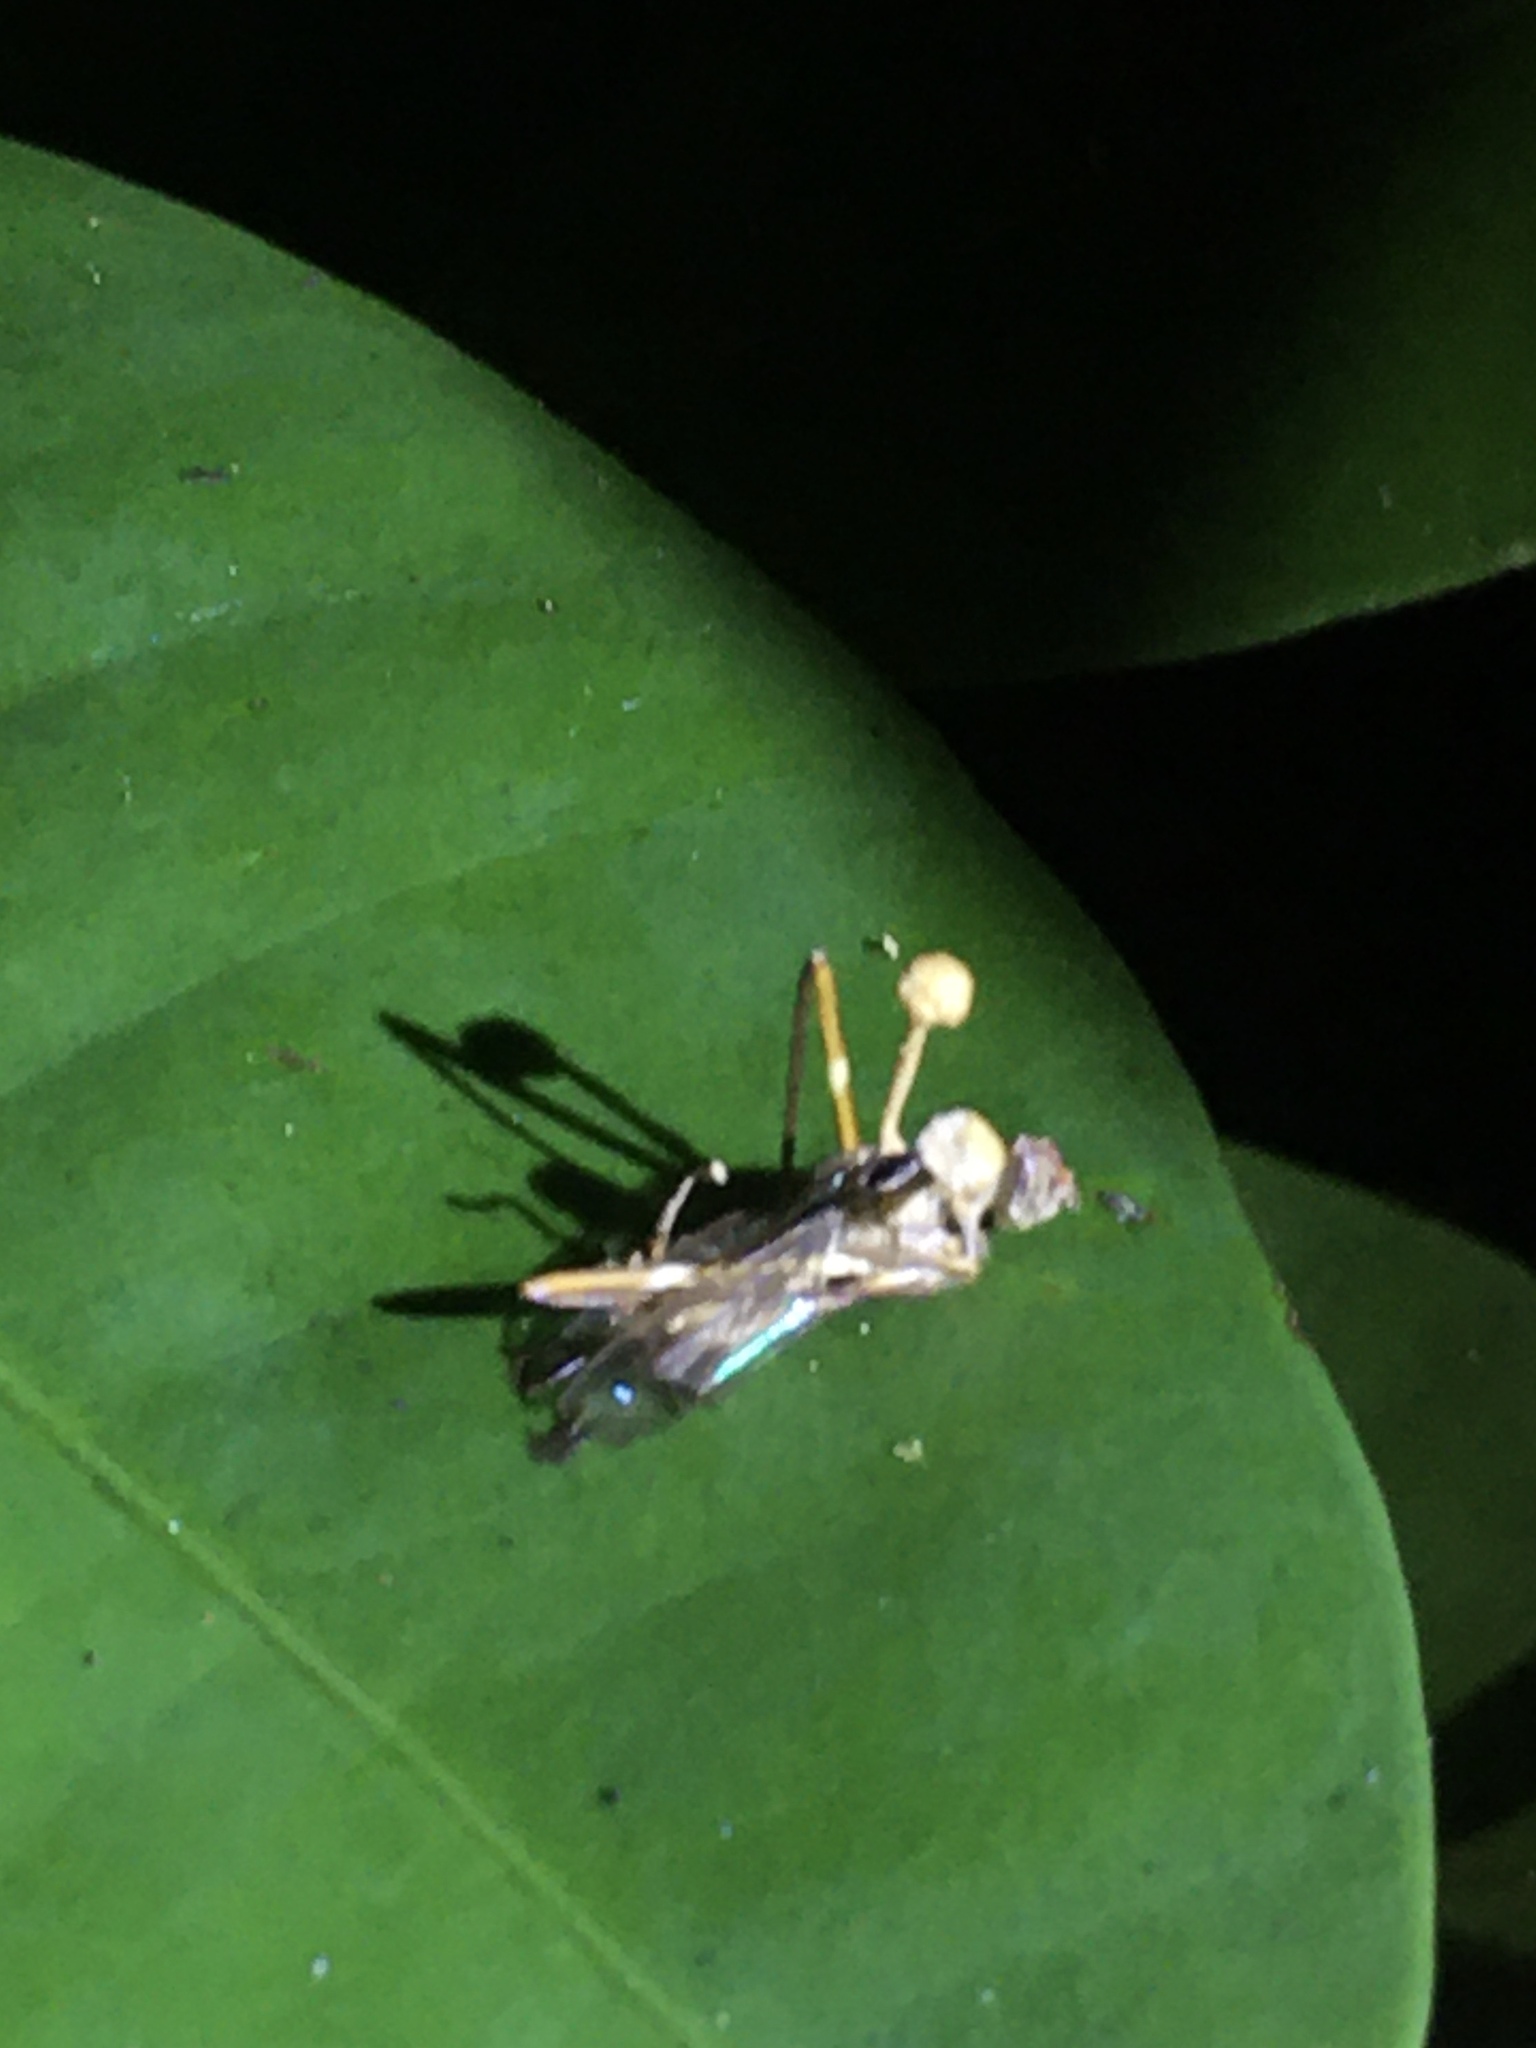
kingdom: Fungi
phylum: Ascomycota
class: Sordariomycetes
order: Hypocreales
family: Ophiocordycipitaceae
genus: Ophiocordyceps
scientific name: Ophiocordyceps dipterigena
